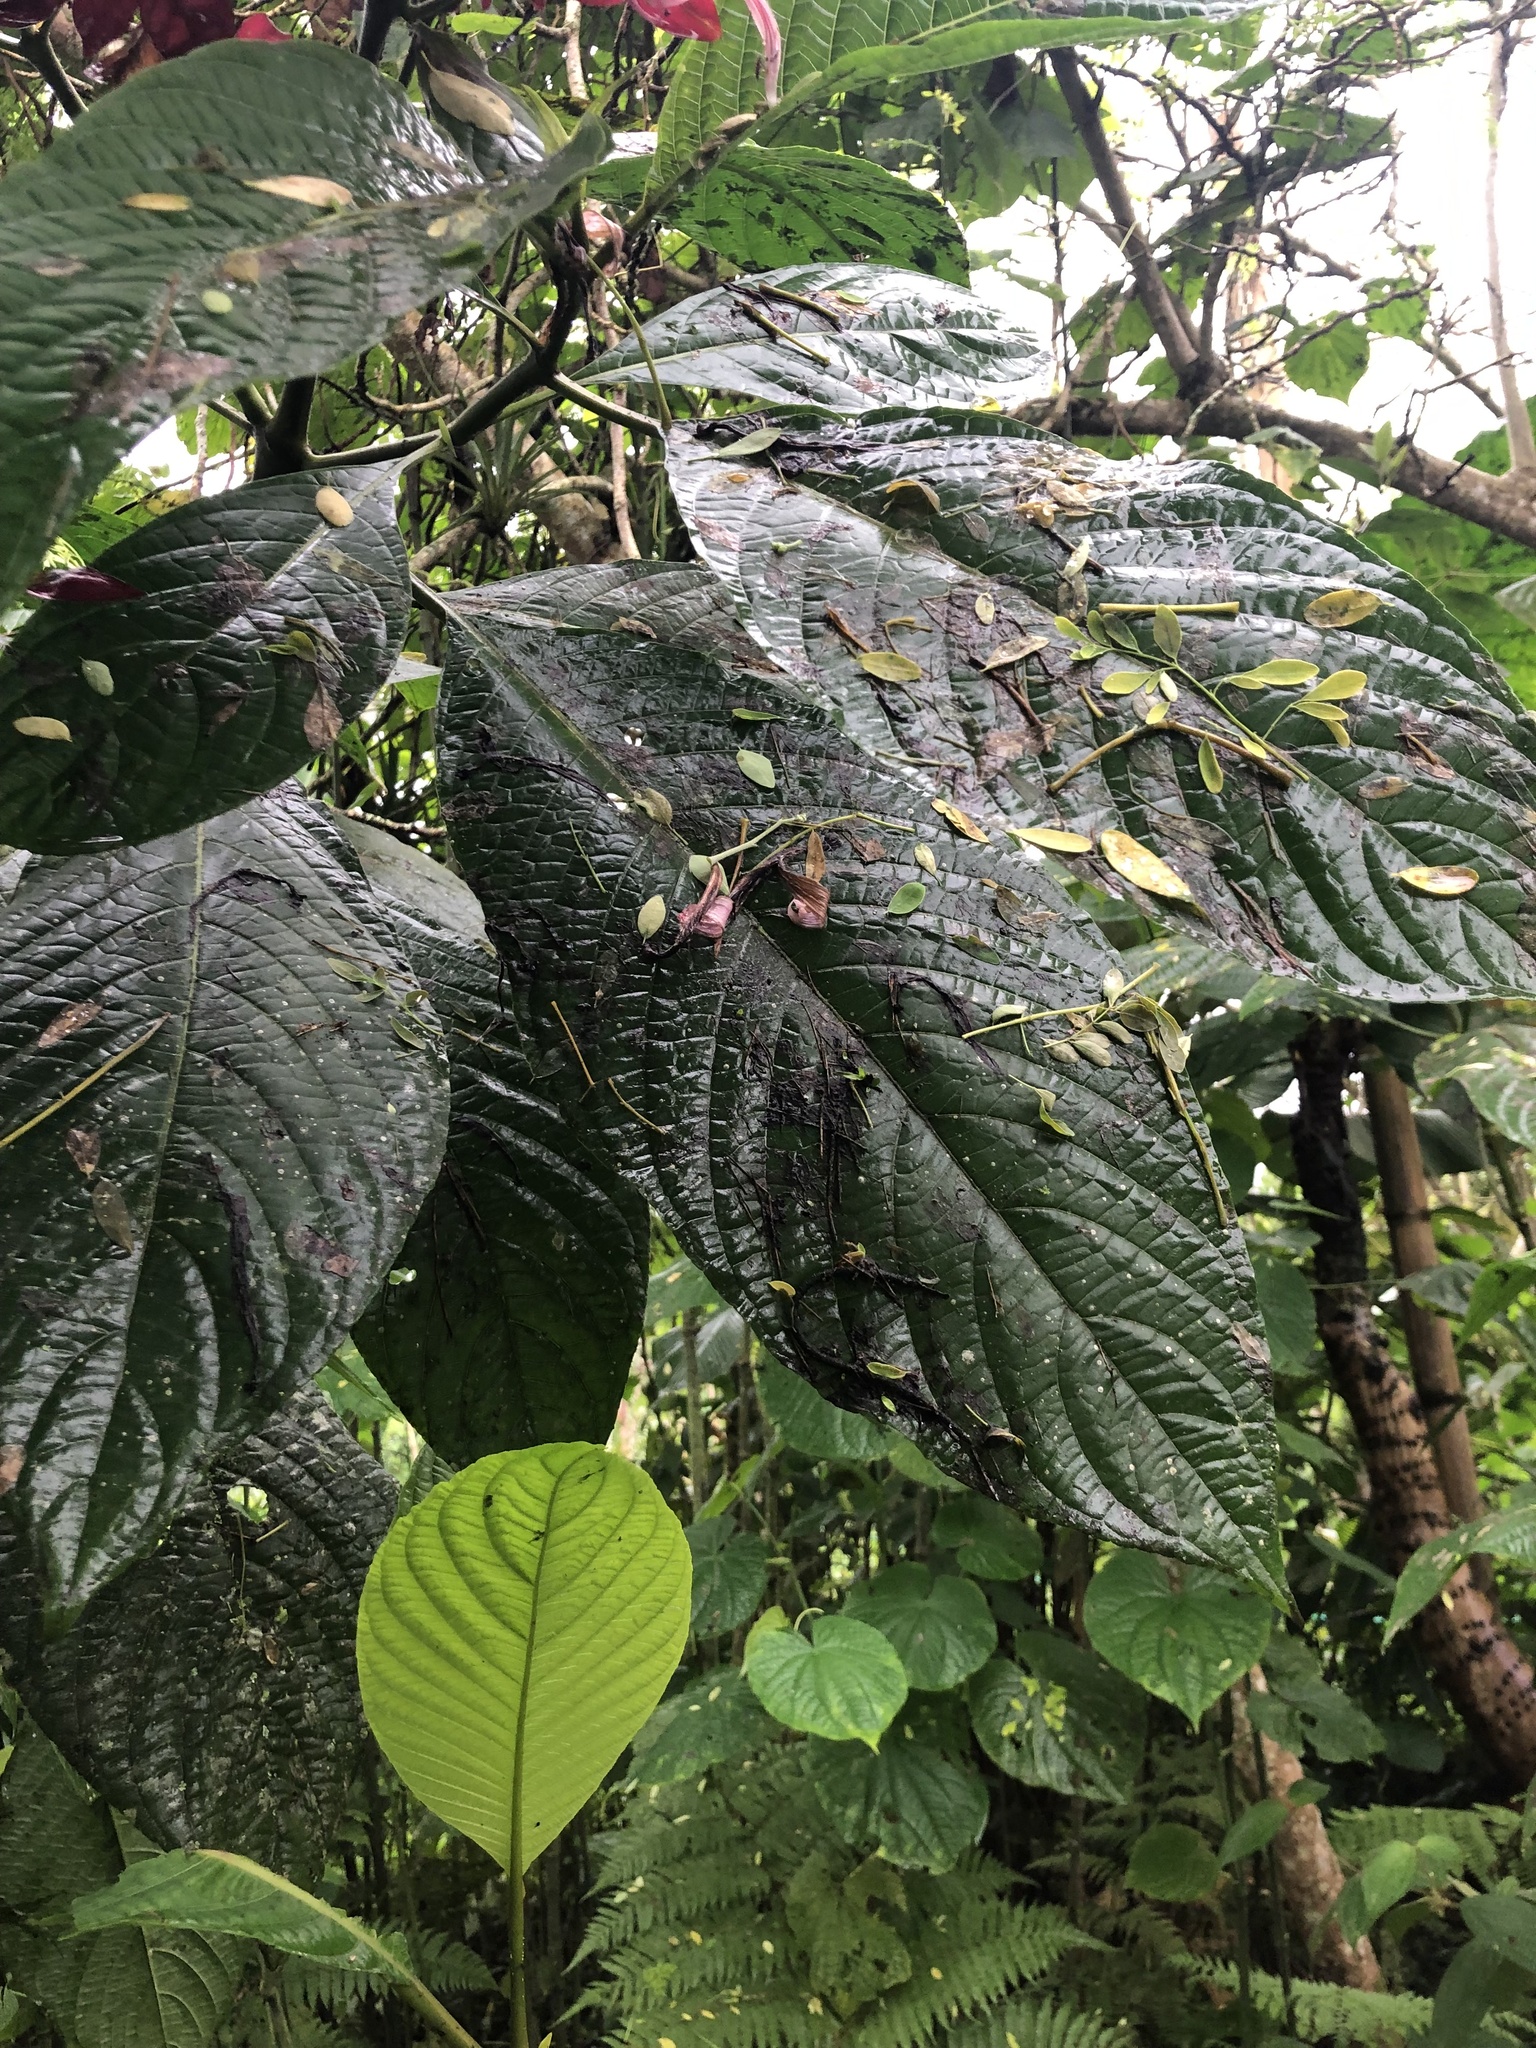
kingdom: Plantae
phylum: Tracheophyta
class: Magnoliopsida
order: Lamiales
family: Acanthaceae
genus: Megaskepasma
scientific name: Megaskepasma erythrochlamys
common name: Brazilian red-cloak
